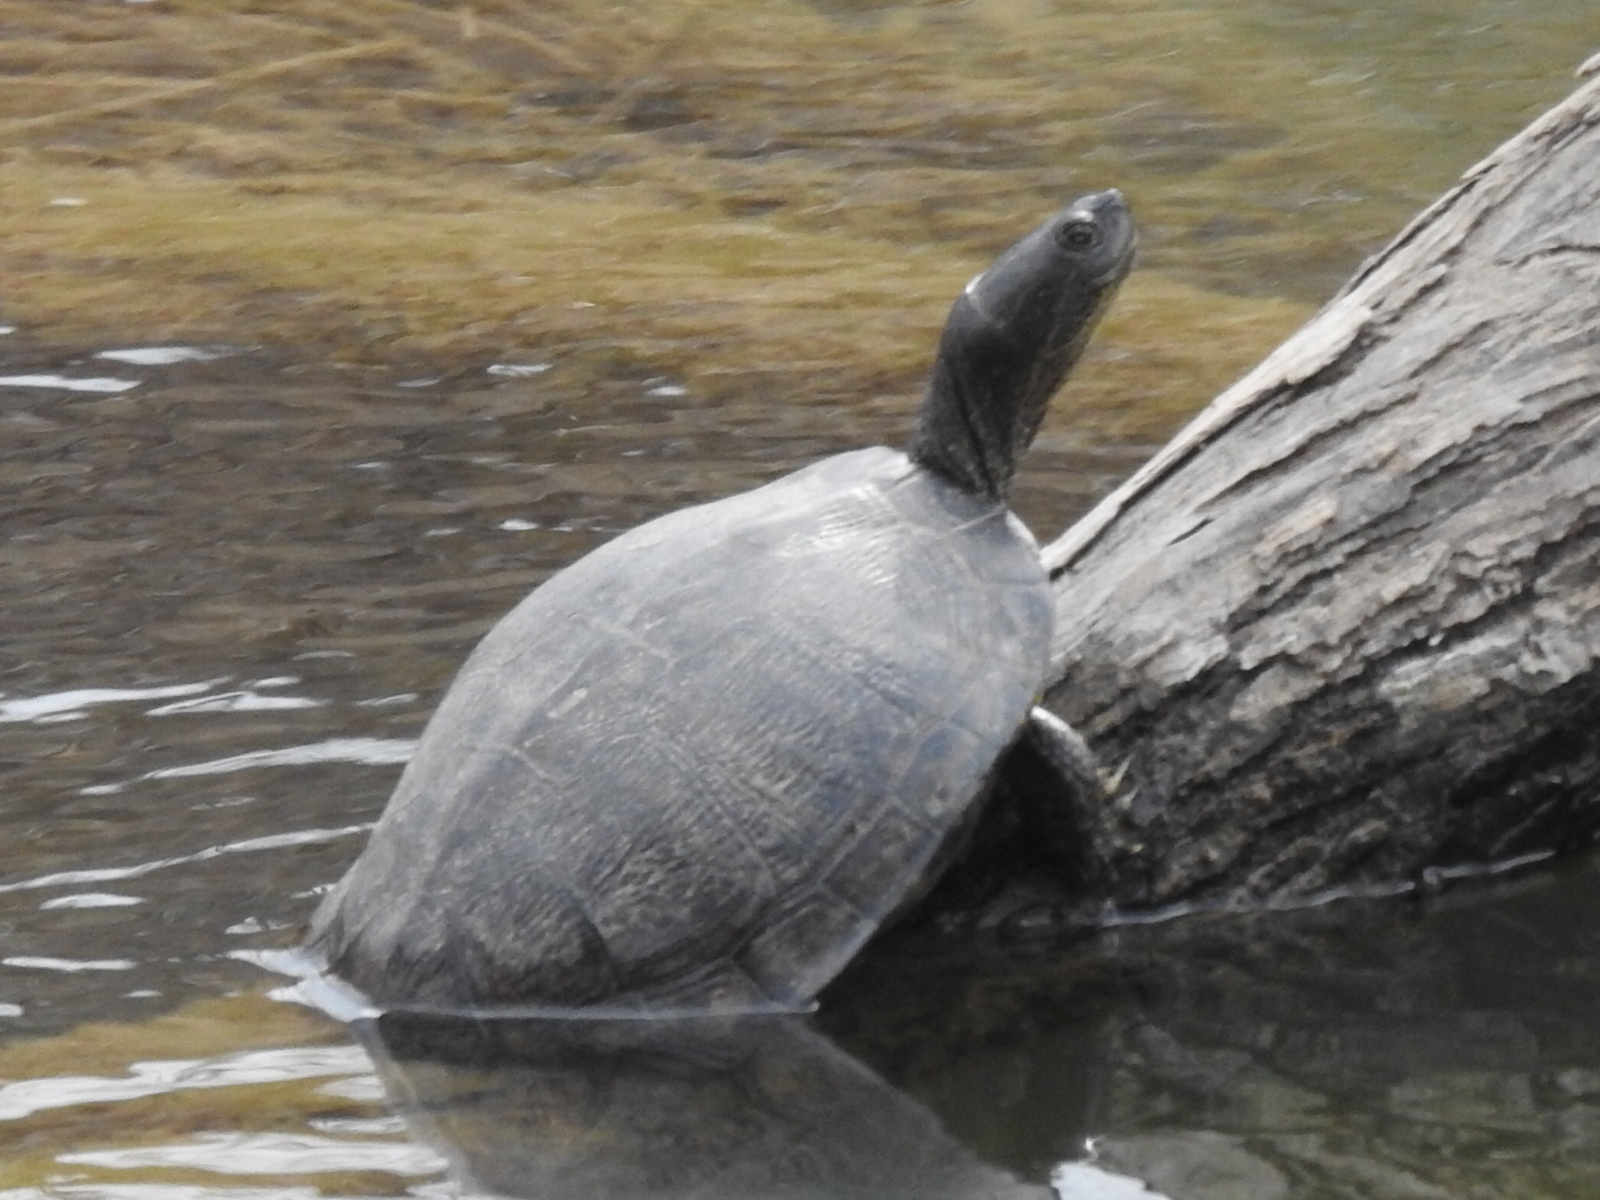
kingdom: Animalia
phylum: Chordata
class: Testudines
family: Emydidae
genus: Trachemys
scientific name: Trachemys scripta
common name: Slider
